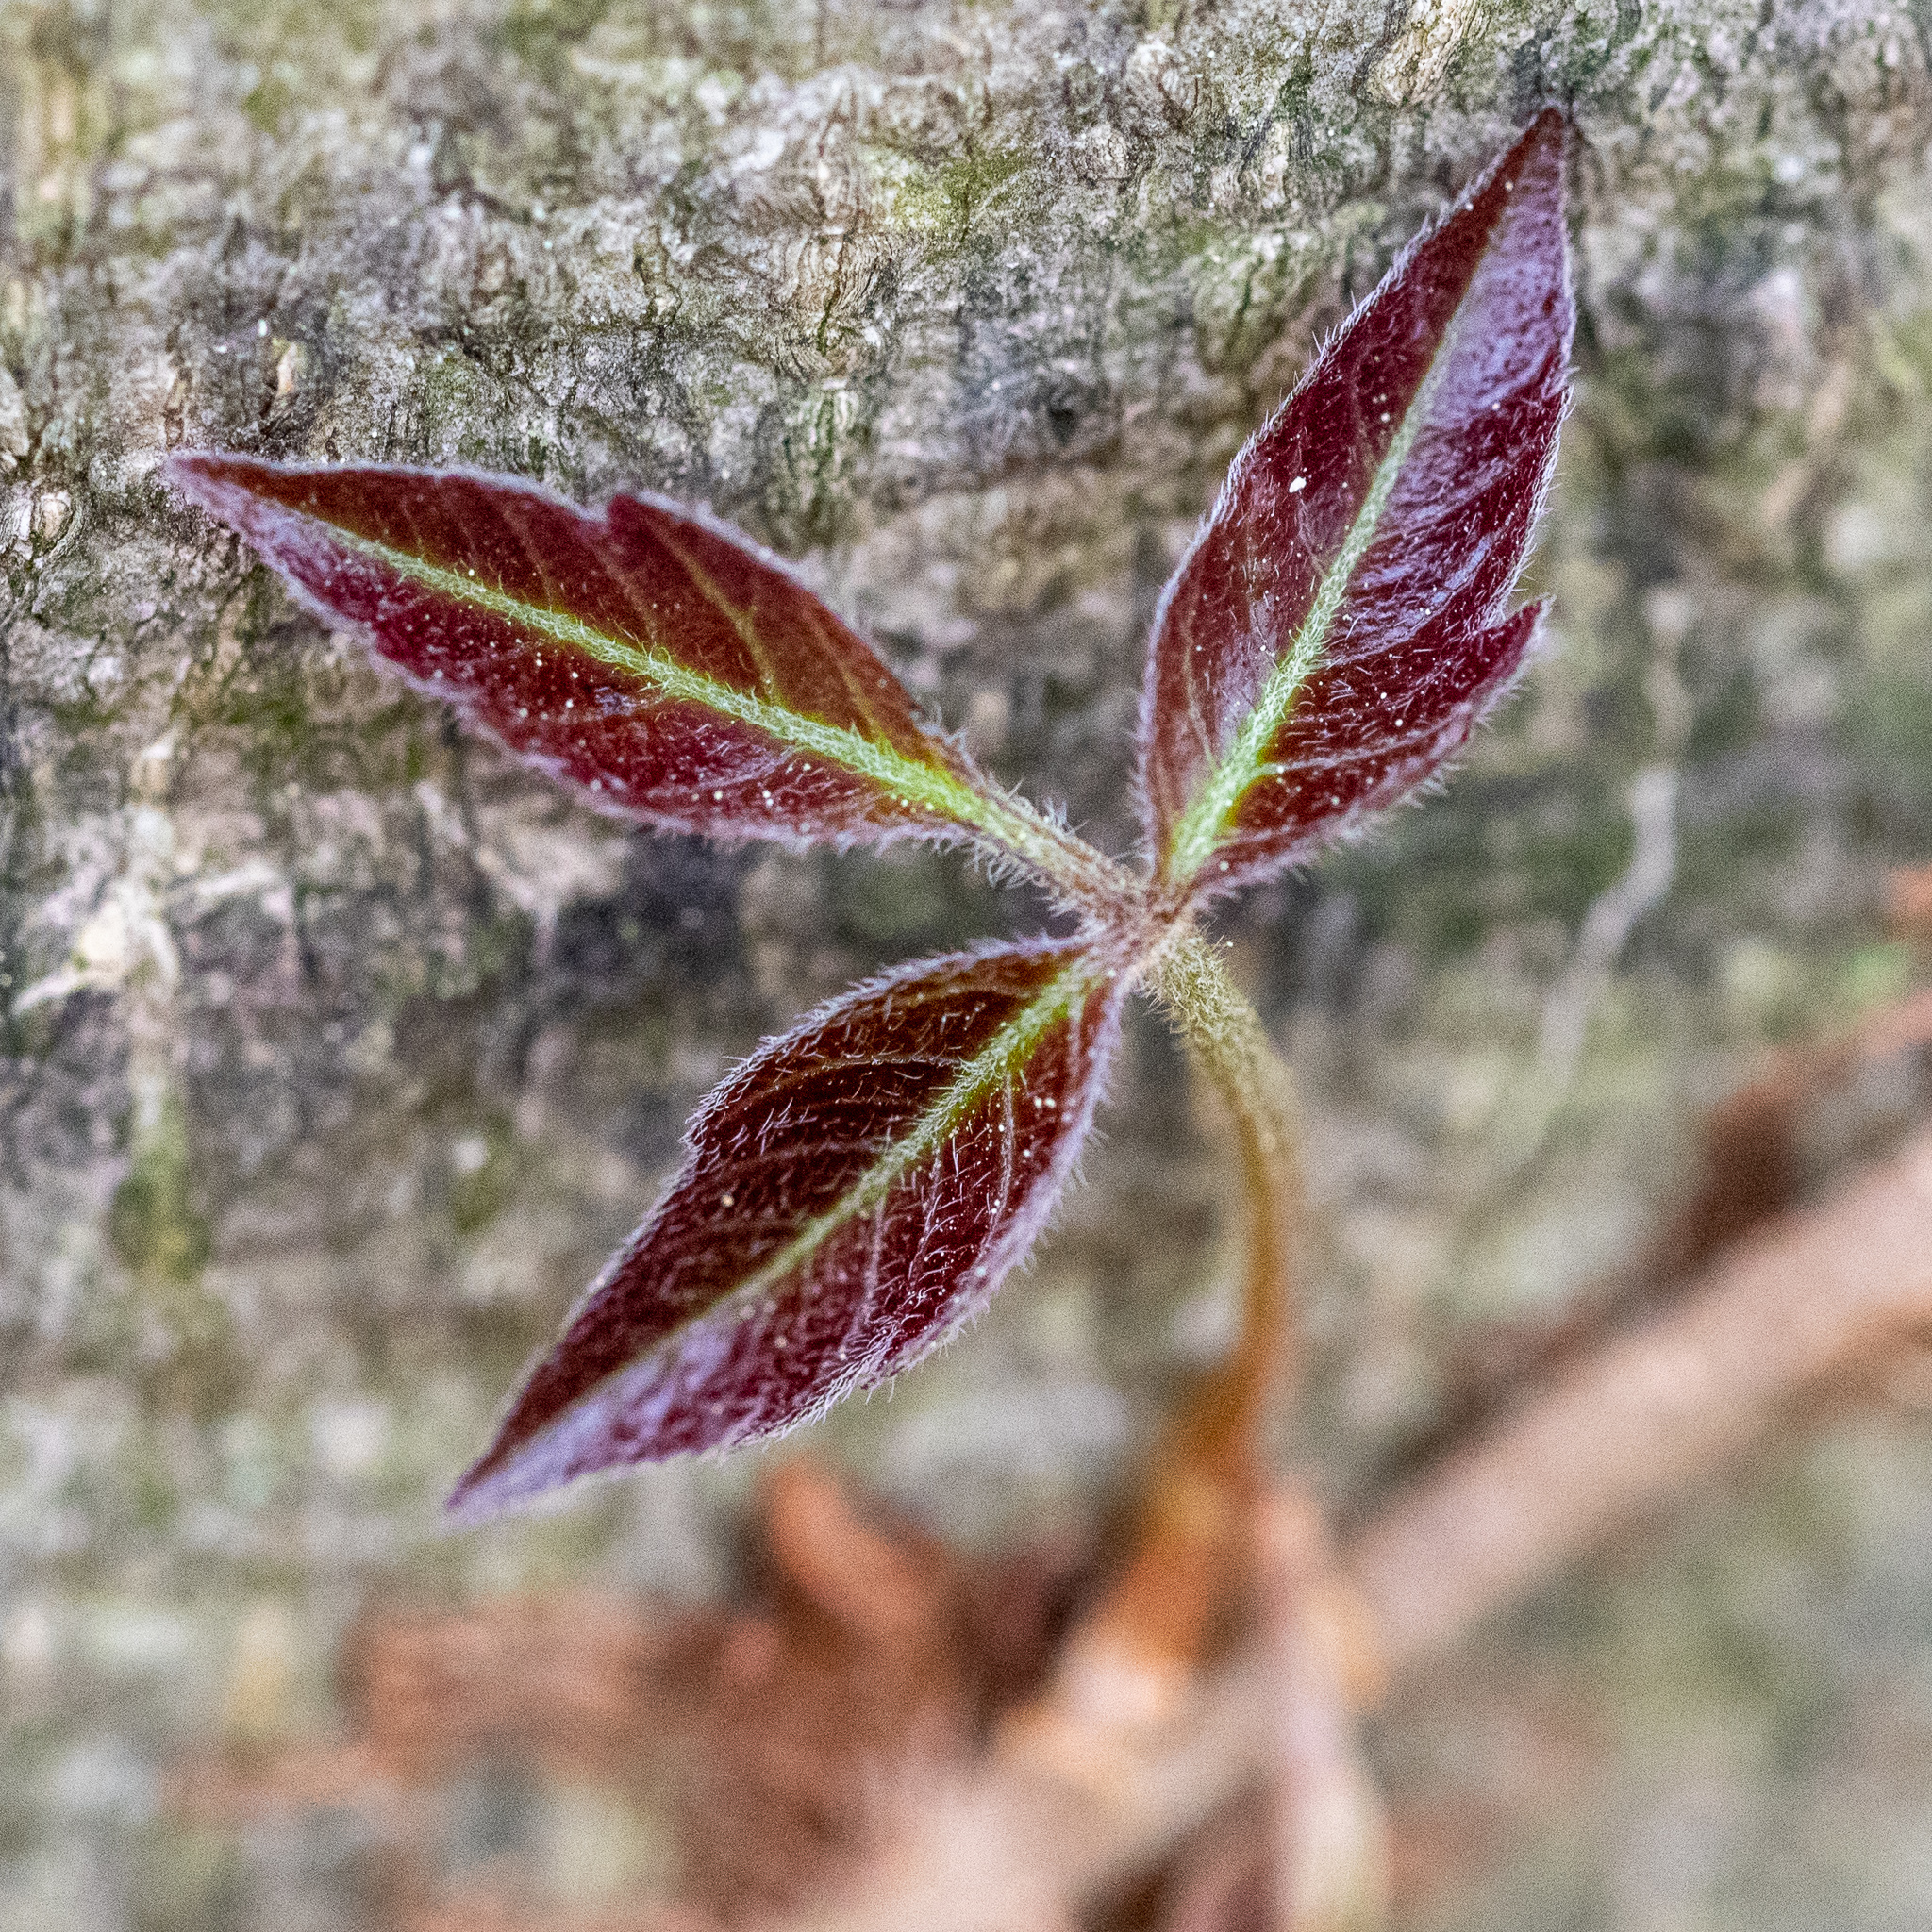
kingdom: Plantae
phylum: Tracheophyta
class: Magnoliopsida
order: Sapindales
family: Anacardiaceae
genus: Toxicodendron
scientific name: Toxicodendron radicans
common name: Poison ivy
